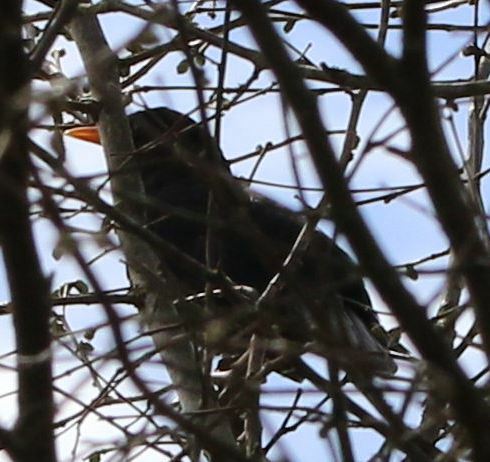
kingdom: Animalia
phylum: Chordata
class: Aves
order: Passeriformes
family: Turdidae
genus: Turdus
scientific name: Turdus merula
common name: Common blackbird
